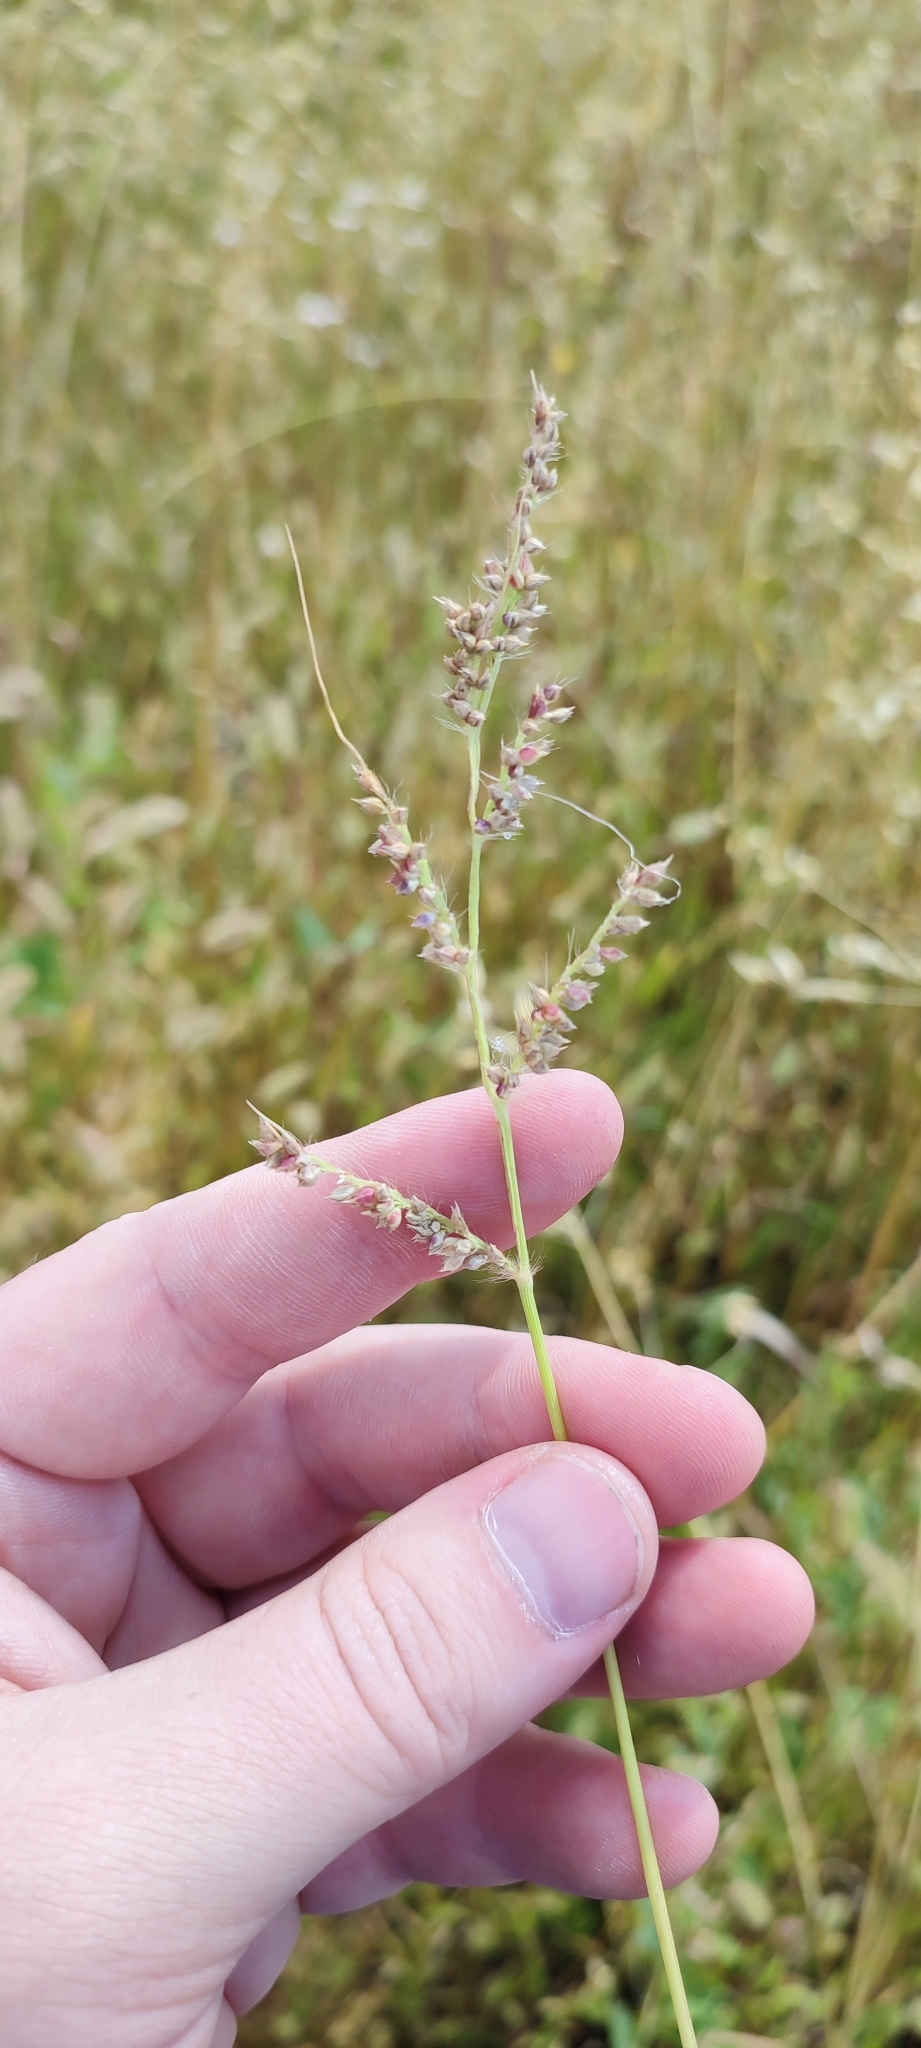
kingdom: Plantae
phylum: Tracheophyta
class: Liliopsida
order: Poales
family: Poaceae
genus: Echinochloa
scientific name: Echinochloa crus-galli
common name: Cockspur
